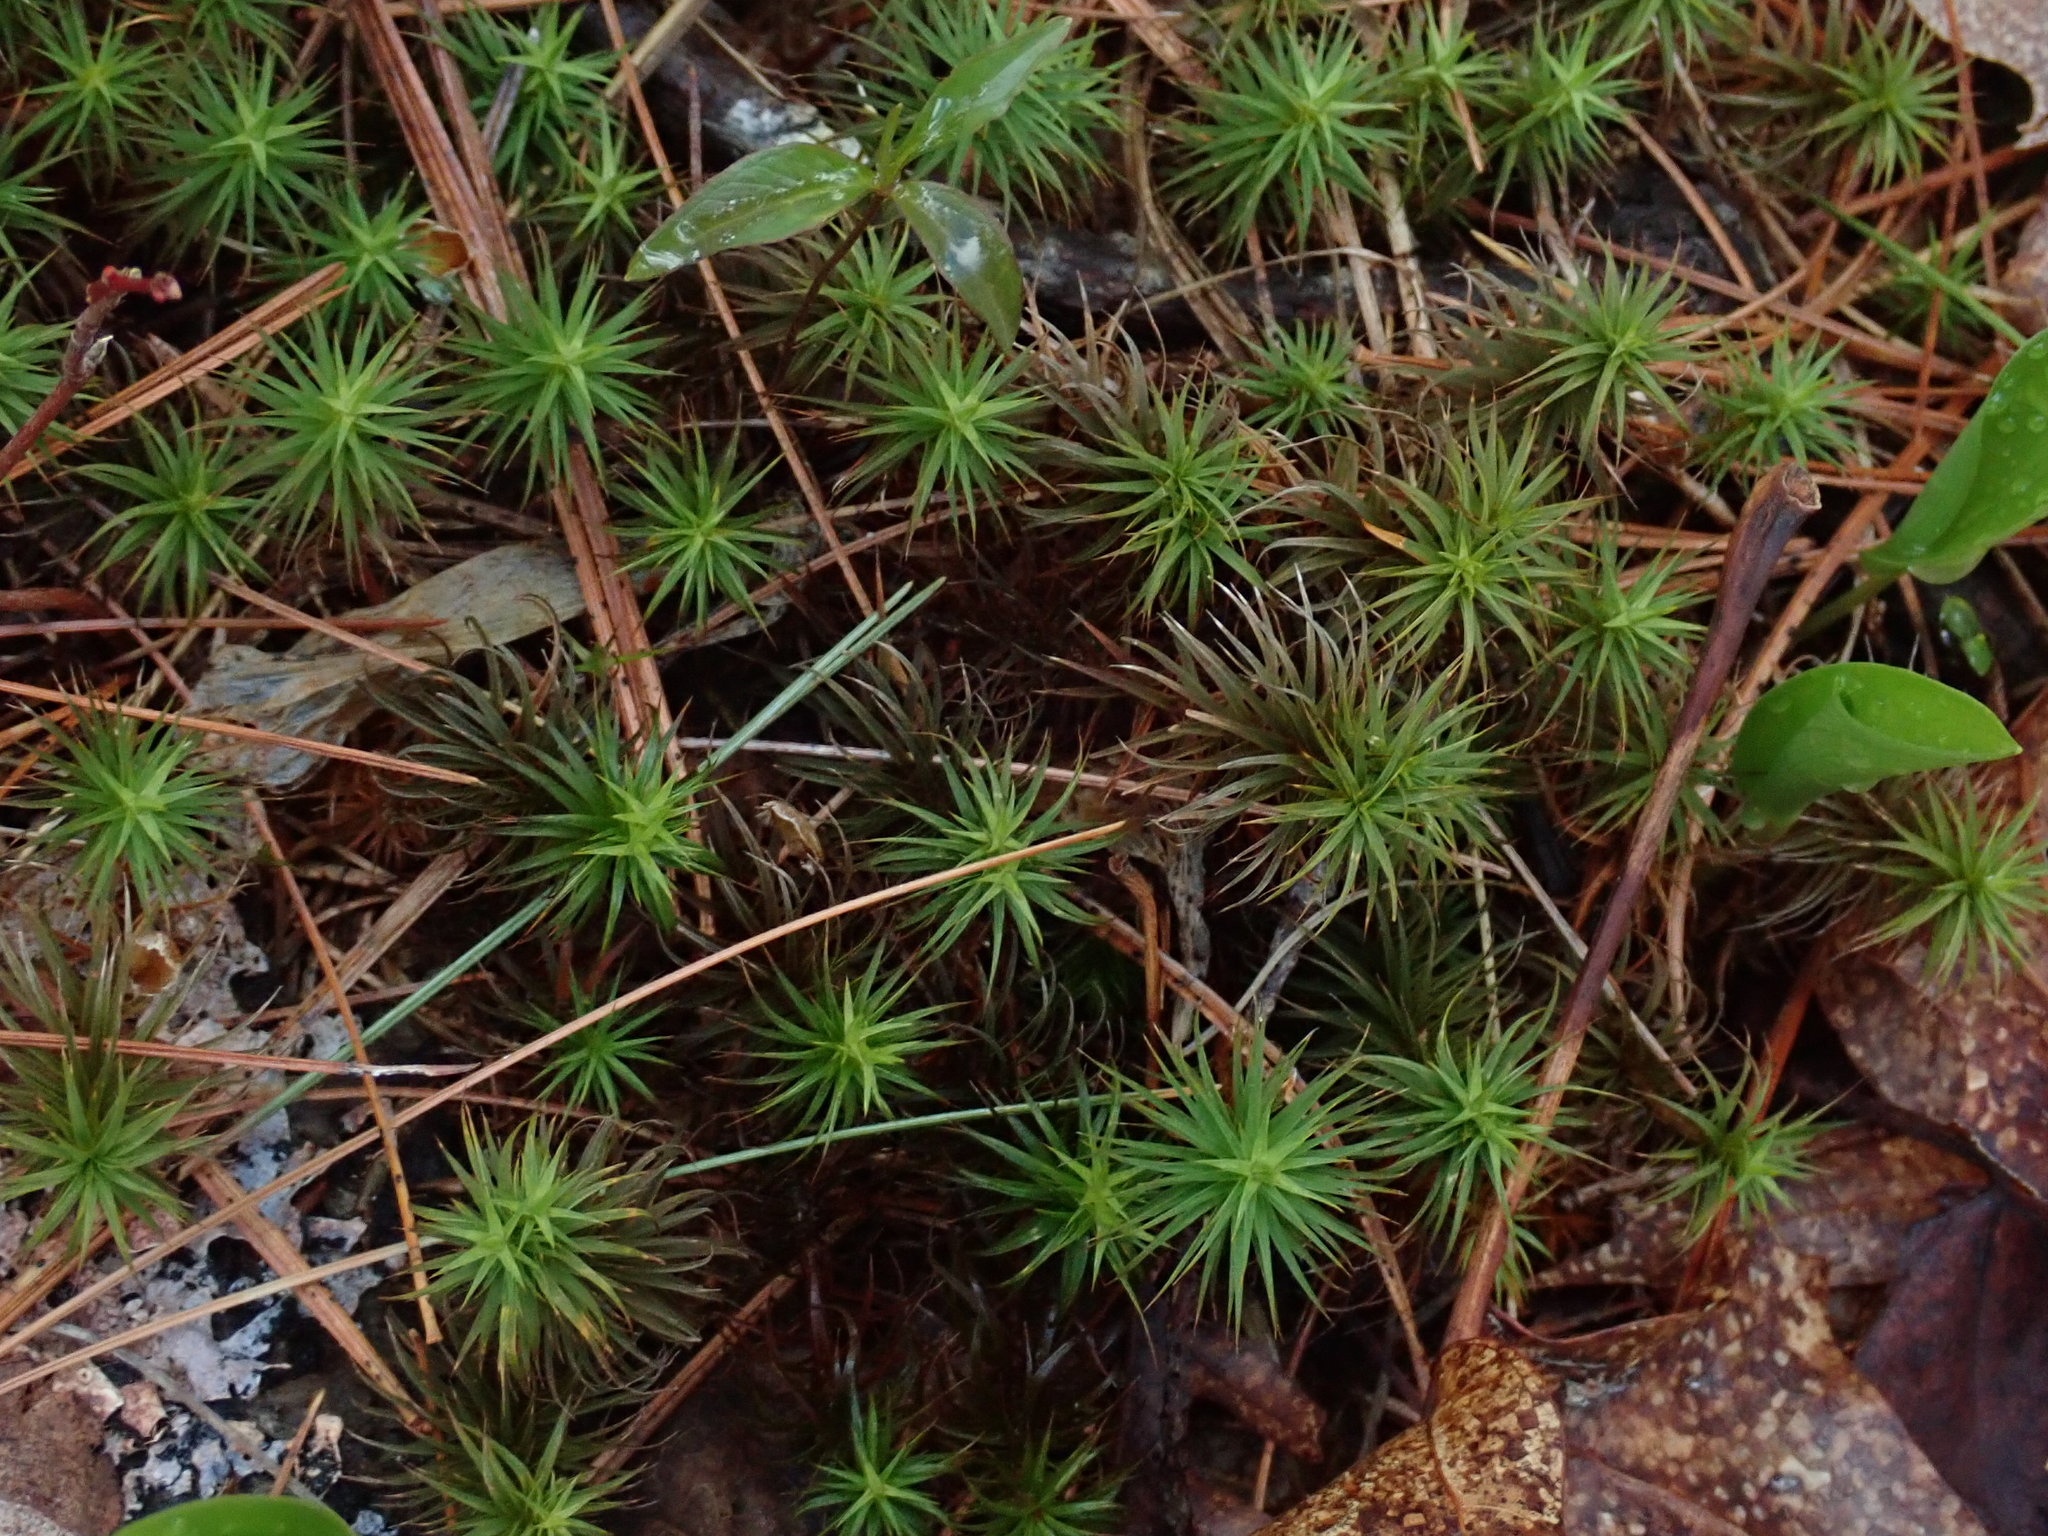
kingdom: Plantae
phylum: Bryophyta
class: Polytrichopsida
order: Polytrichales
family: Polytrichaceae
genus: Polytrichum
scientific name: Polytrichum
